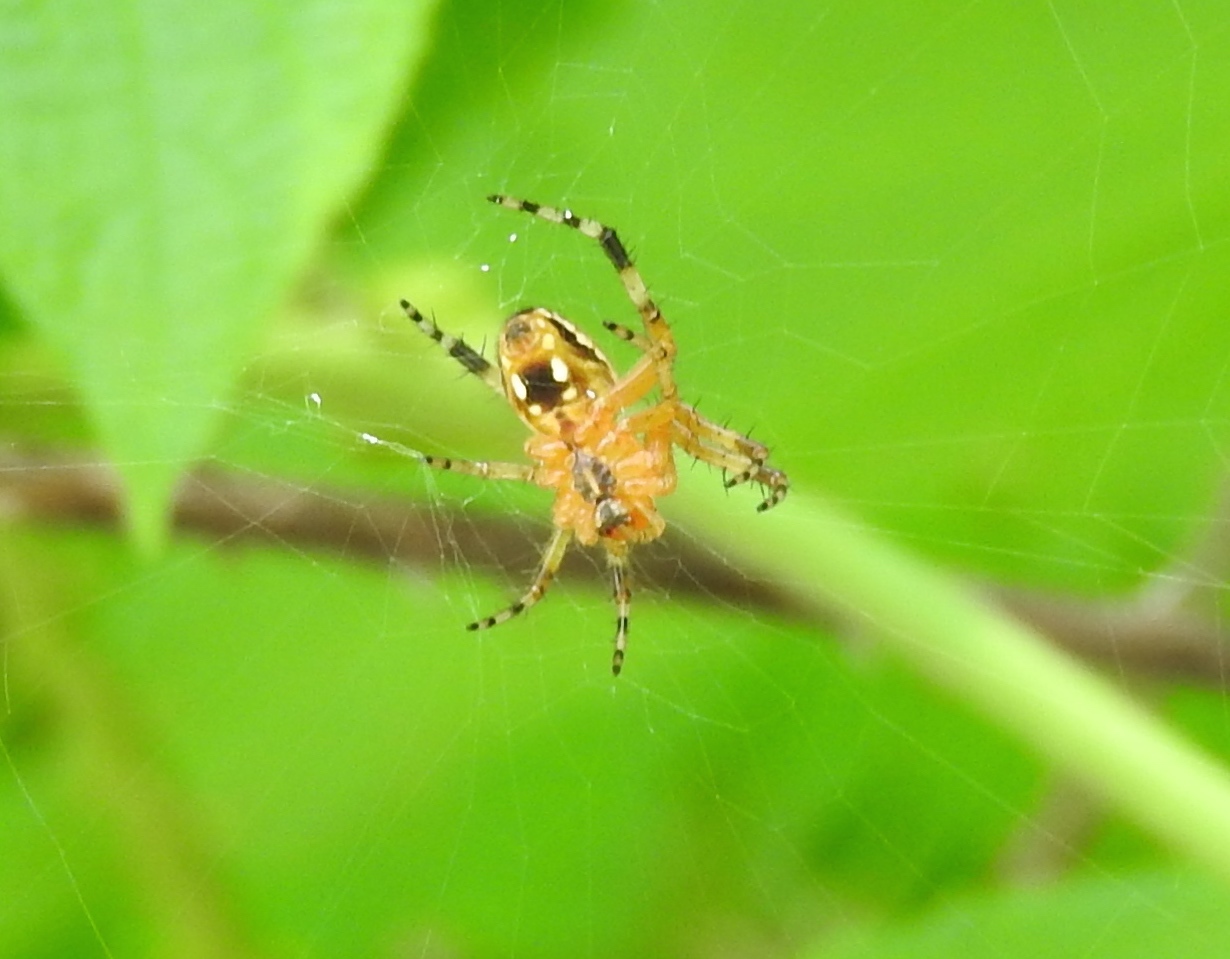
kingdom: Animalia
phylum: Arthropoda
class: Arachnida
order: Araneae
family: Araneidae
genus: Neoscona
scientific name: Neoscona
